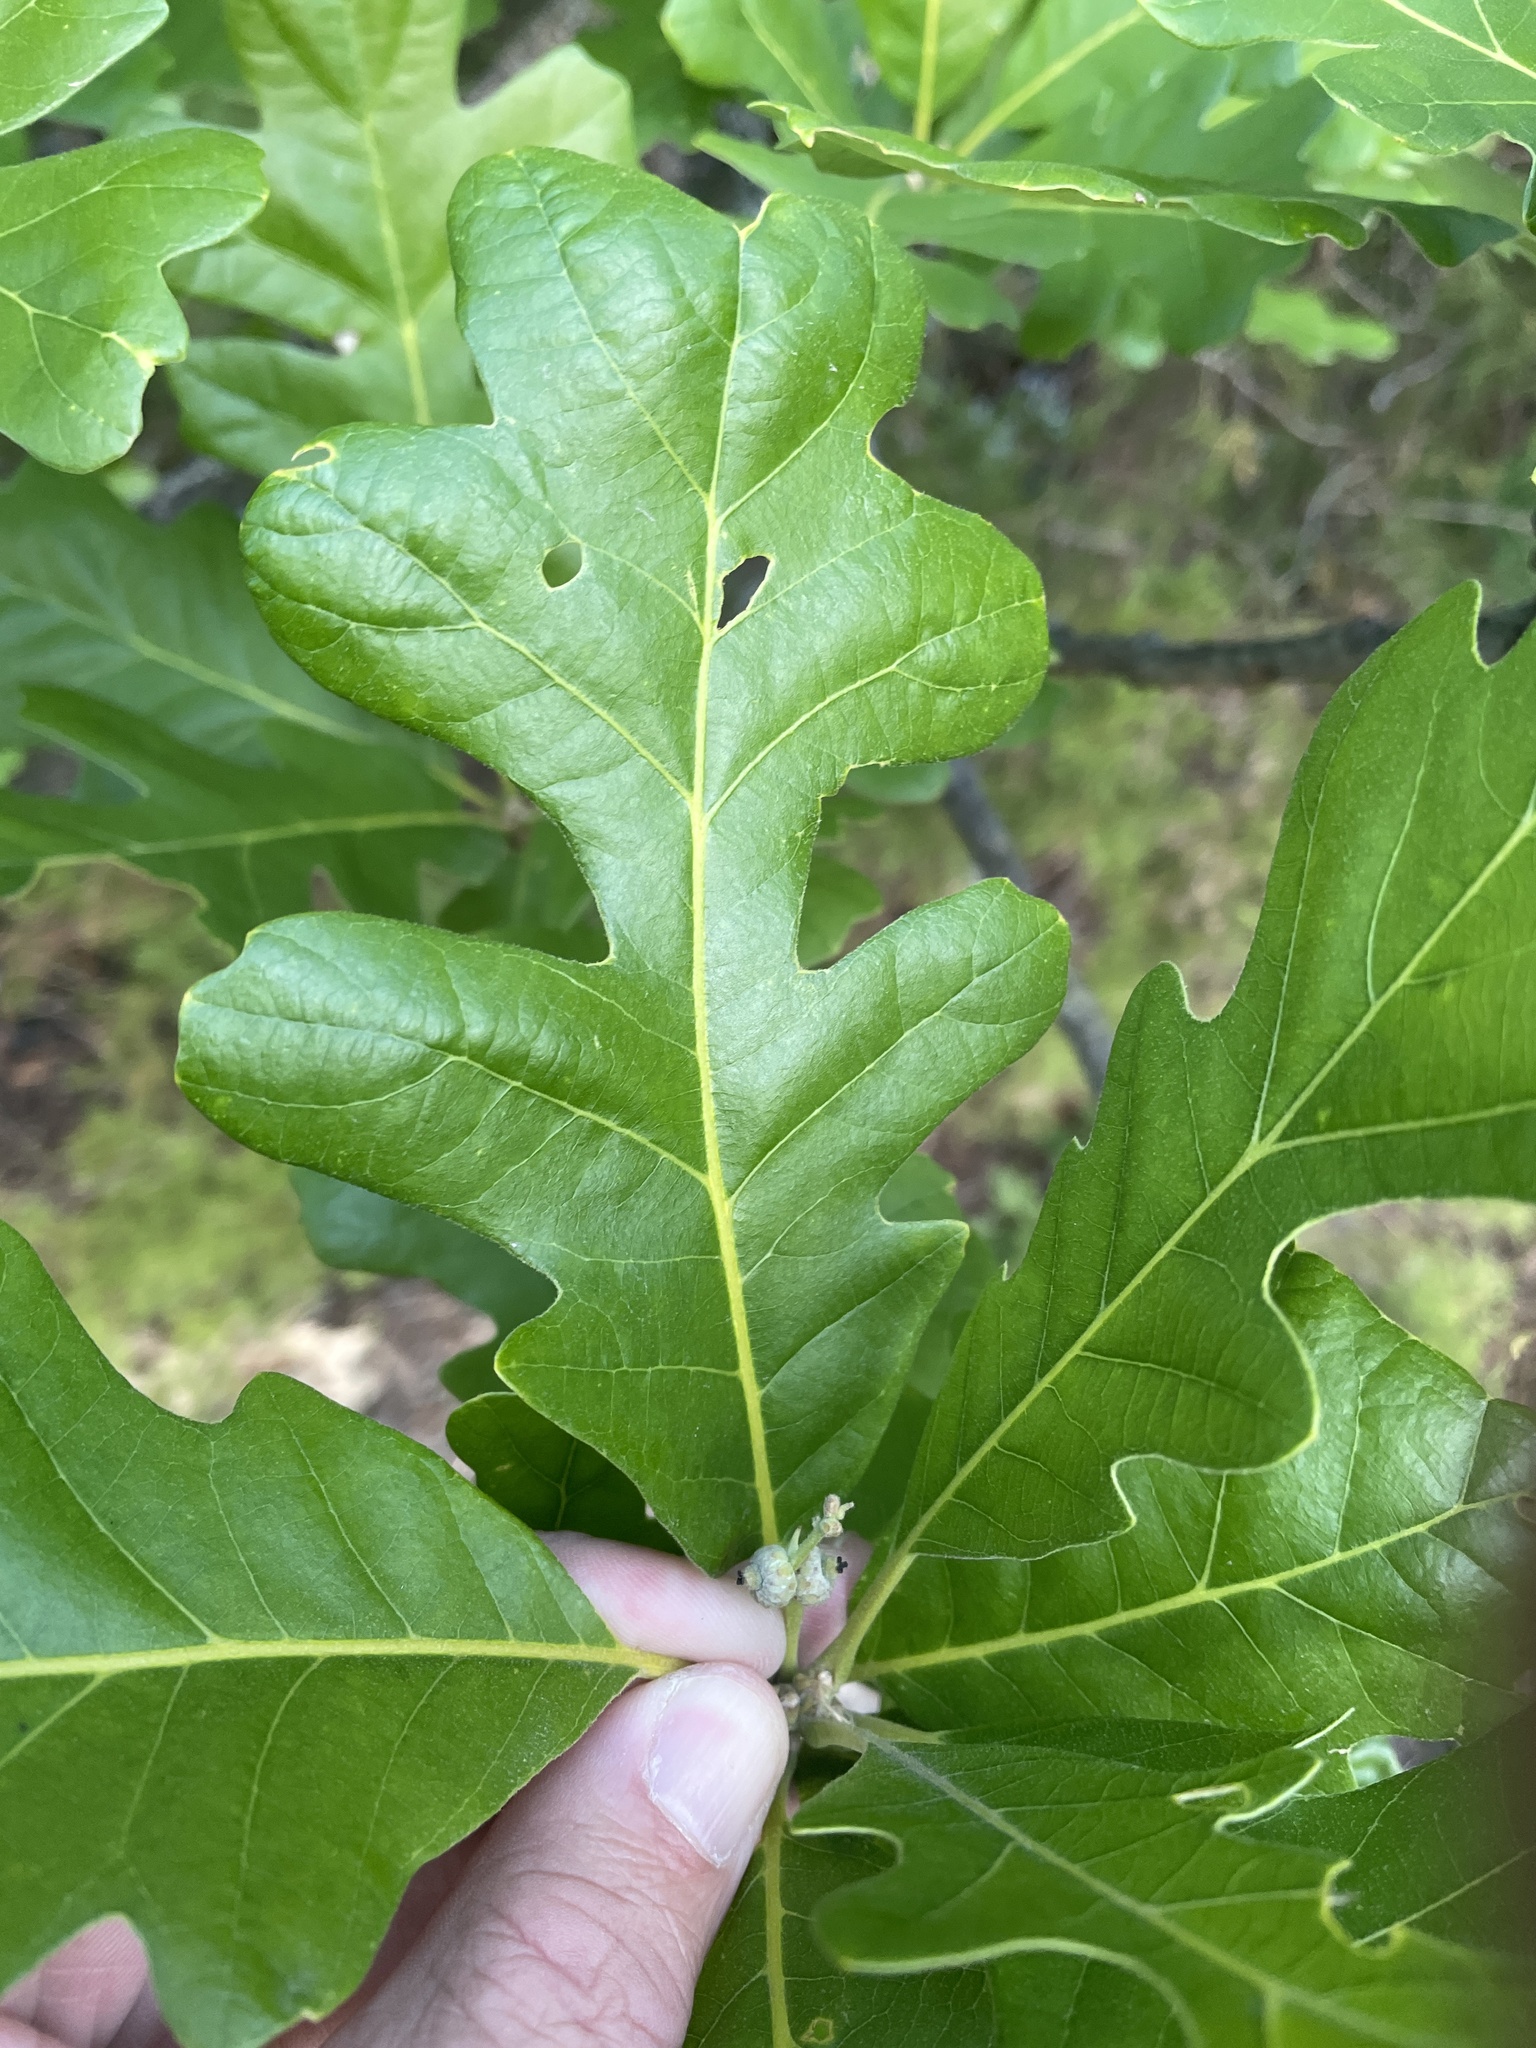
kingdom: Plantae
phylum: Tracheophyta
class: Magnoliopsida
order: Fagales
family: Fagaceae
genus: Quercus
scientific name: Quercus macrocarpa
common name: Bur oak
